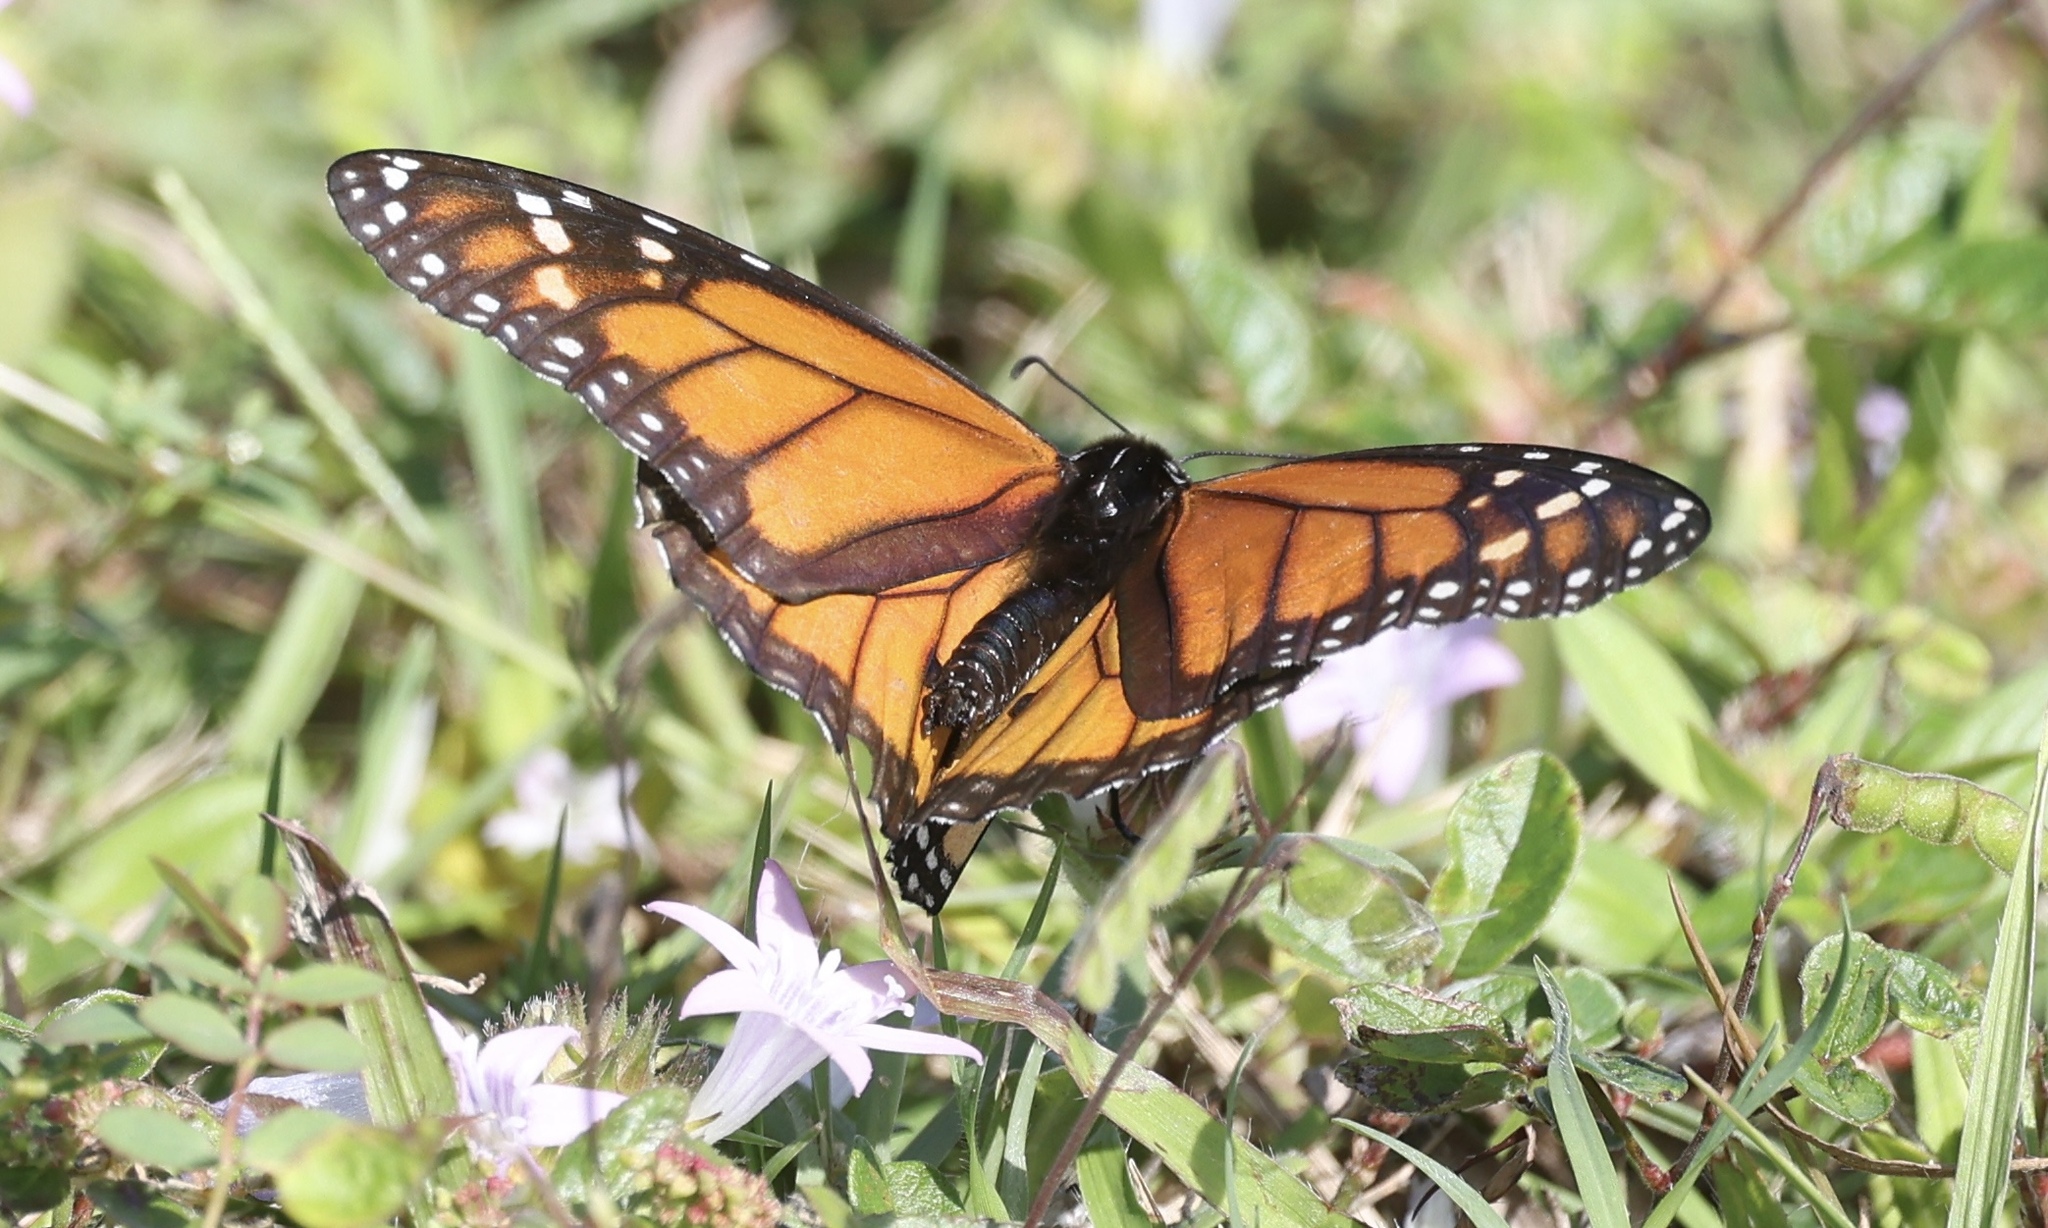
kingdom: Animalia
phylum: Arthropoda
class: Insecta
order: Lepidoptera
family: Nymphalidae
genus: Danaus
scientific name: Danaus plexippus
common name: Monarch
